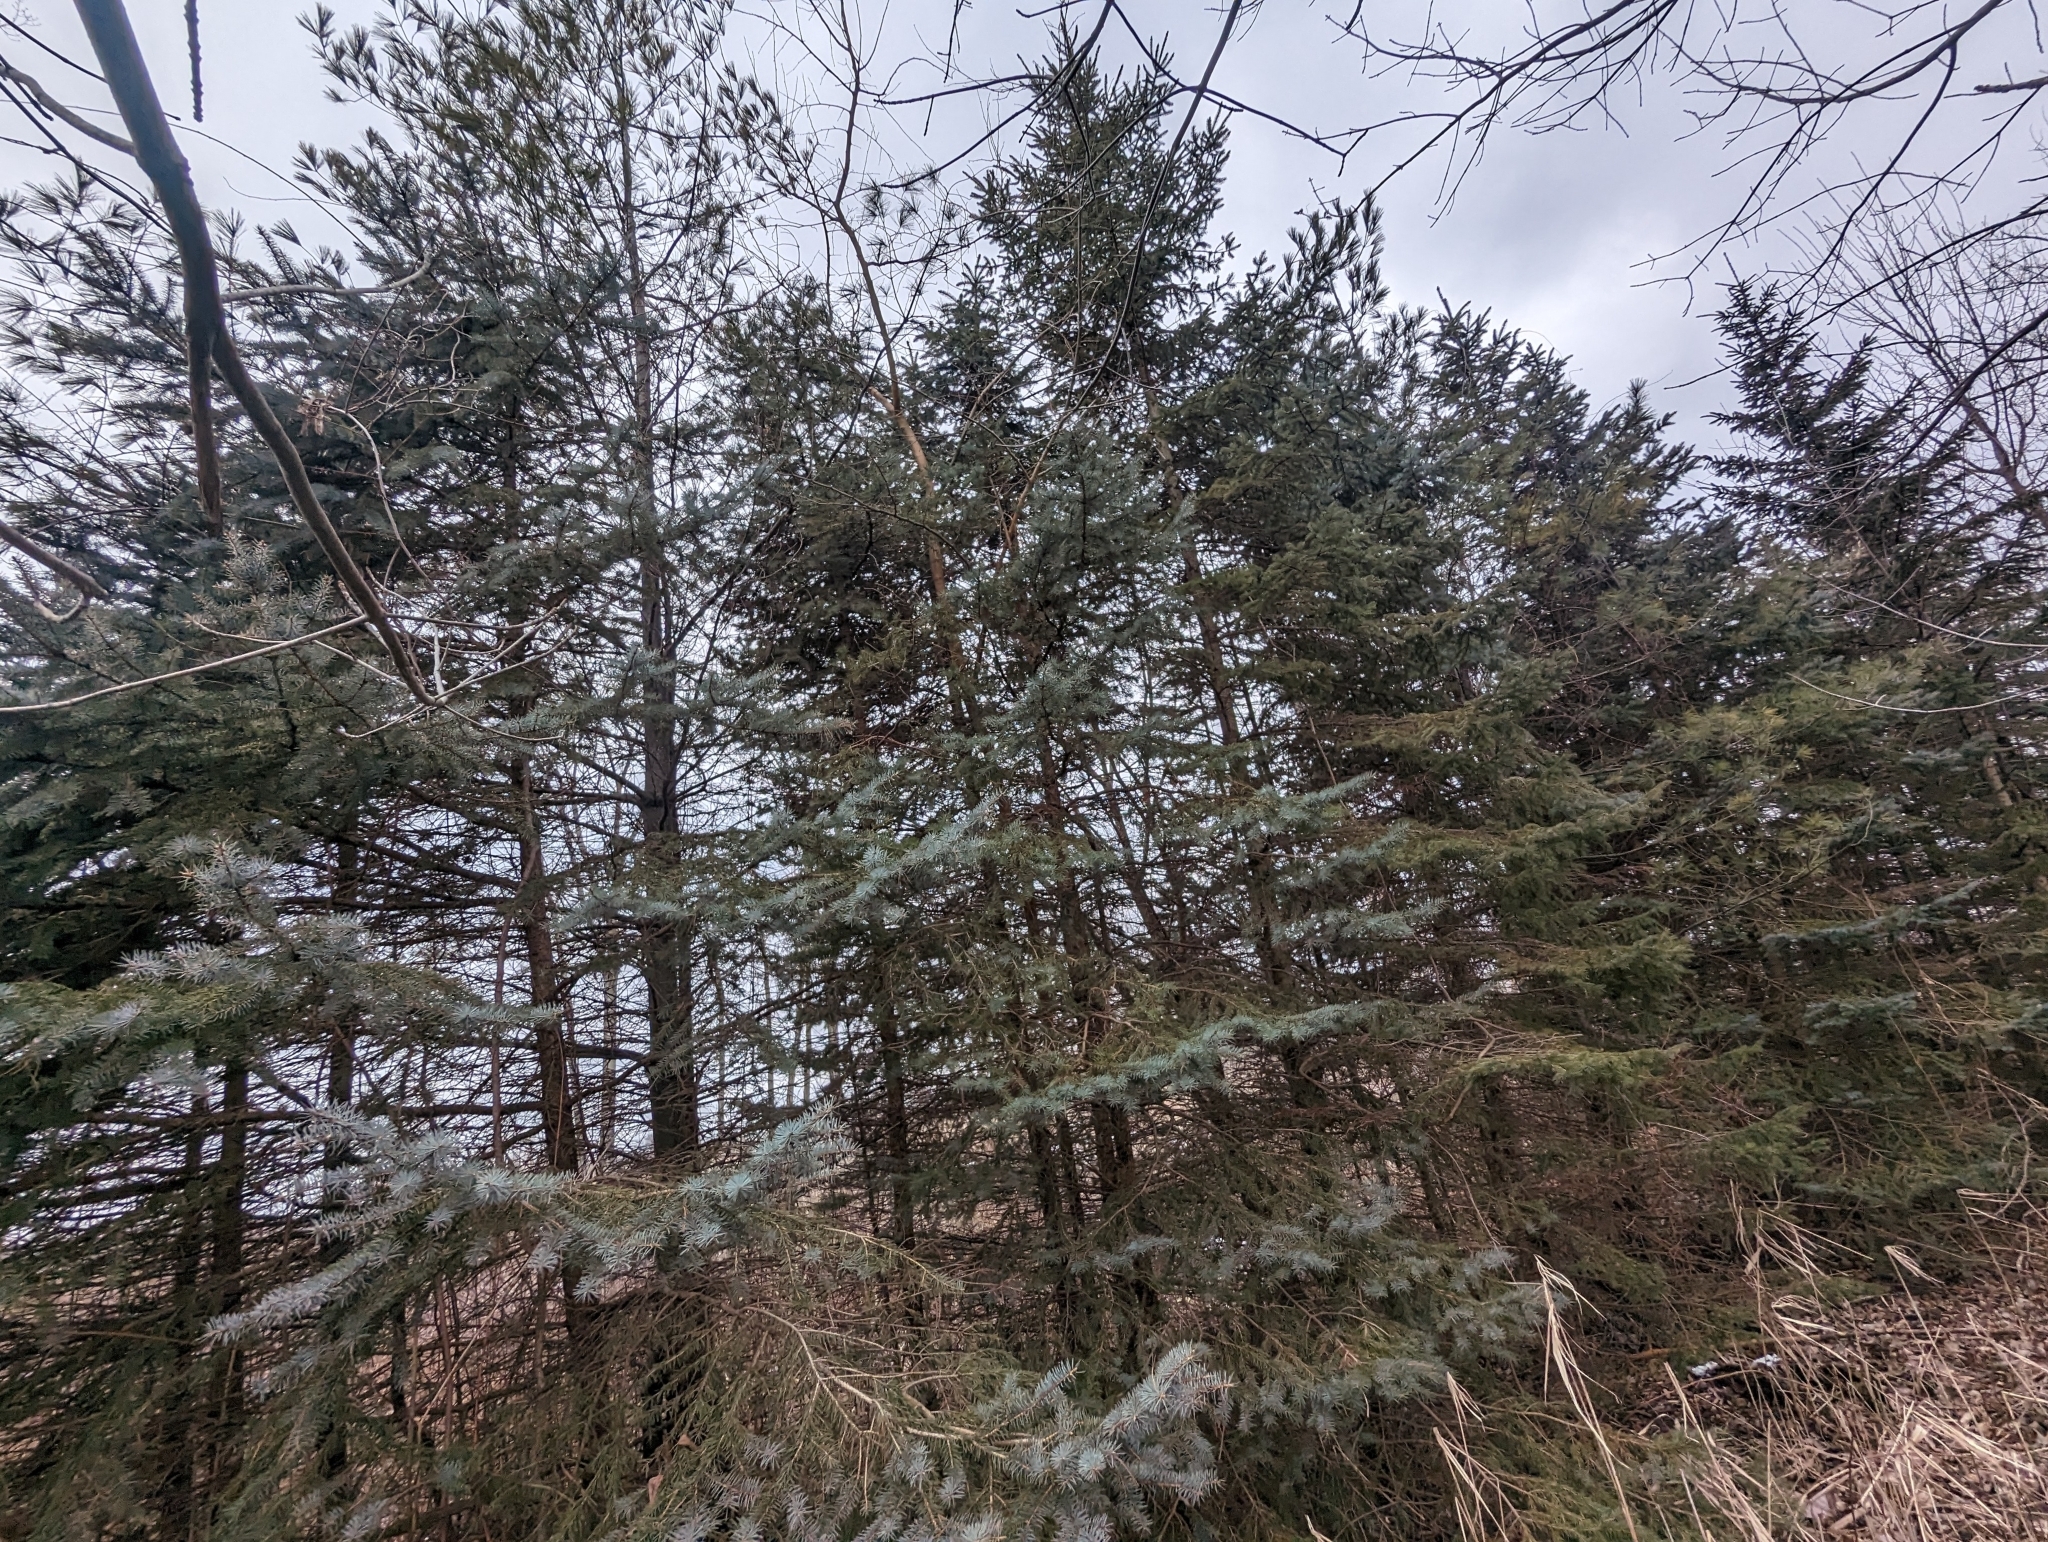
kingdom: Plantae
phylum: Tracheophyta
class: Pinopsida
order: Pinales
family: Pinaceae
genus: Picea
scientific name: Picea pungens
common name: Colorado spruce
